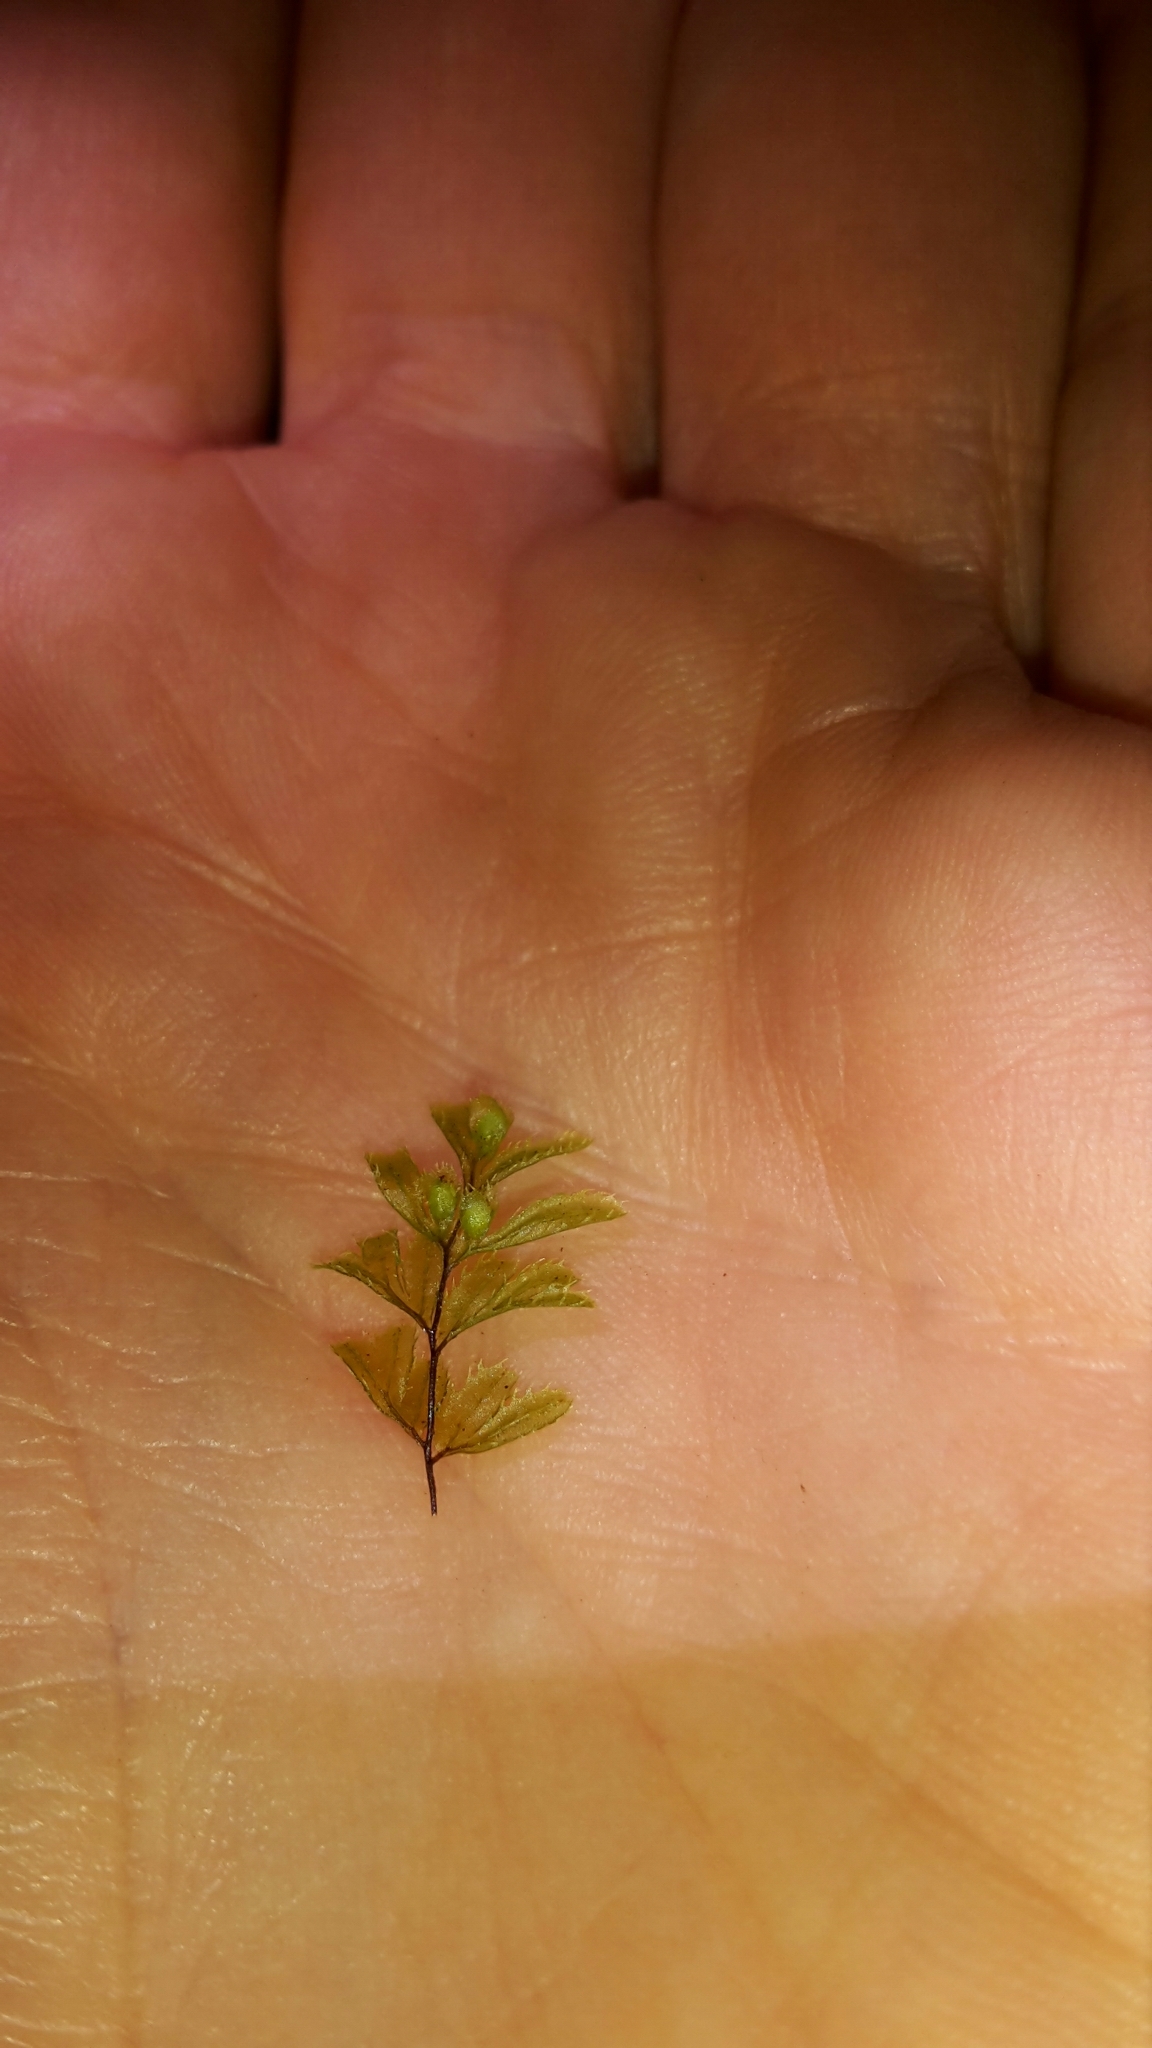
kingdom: Plantae
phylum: Tracheophyta
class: Polypodiopsida
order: Hymenophyllales
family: Hymenophyllaceae
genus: Hymenophyllum
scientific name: Hymenophyllum revolutum
